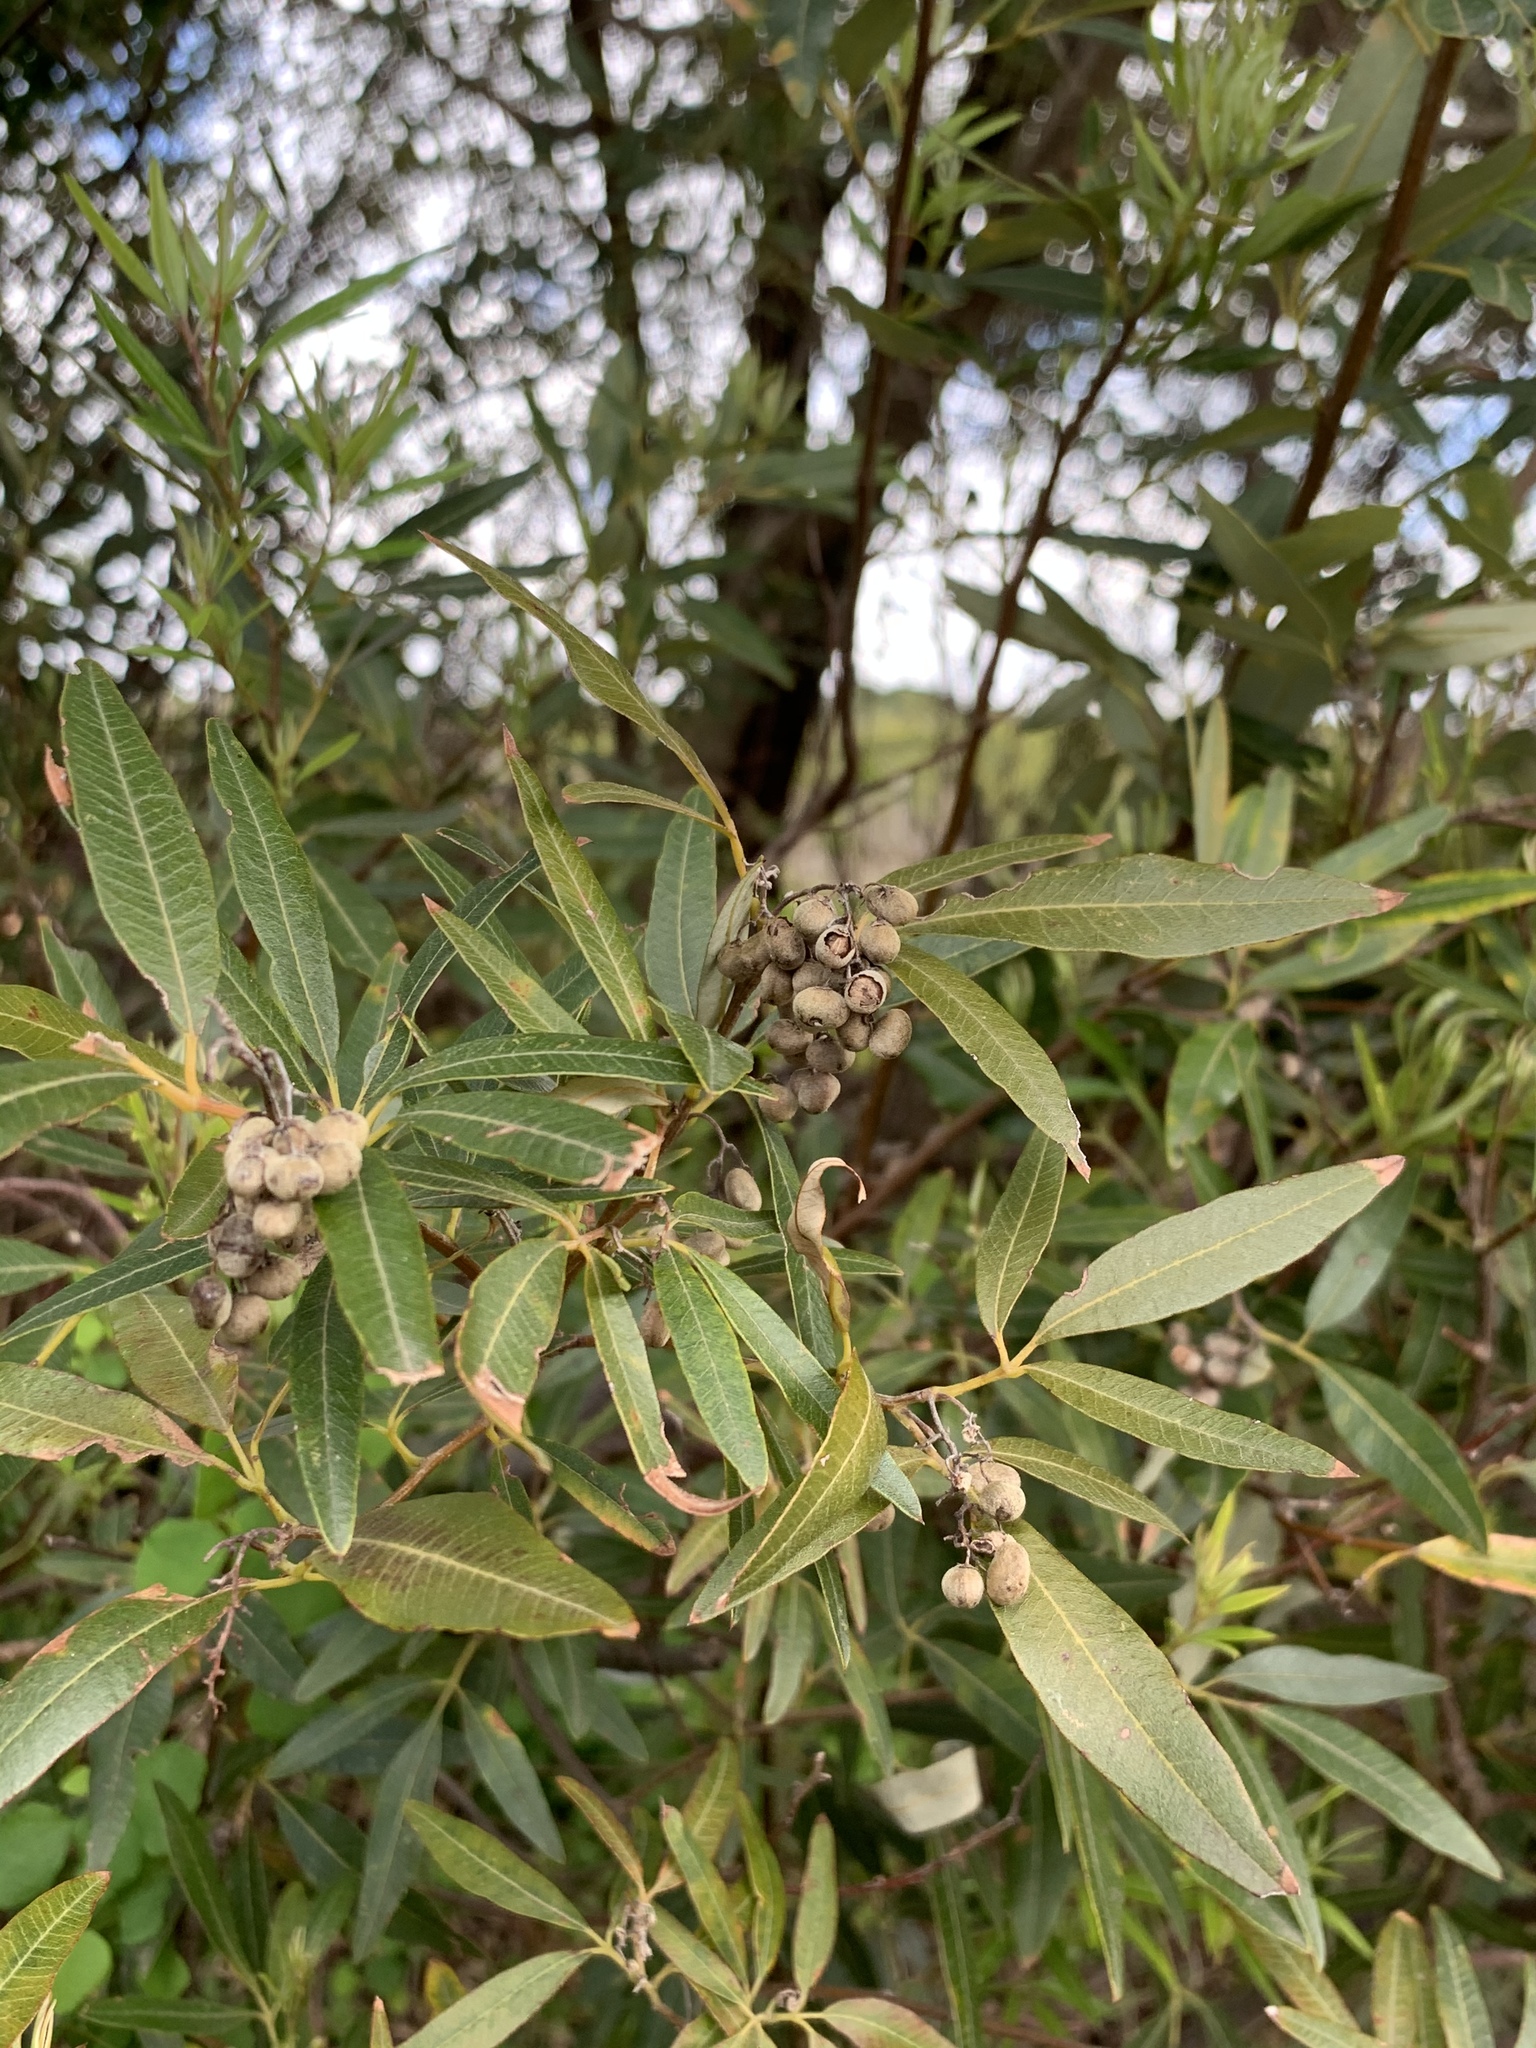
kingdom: Plantae
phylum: Tracheophyta
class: Magnoliopsida
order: Sapindales
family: Anacardiaceae
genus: Searsia
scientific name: Searsia angustifolia
